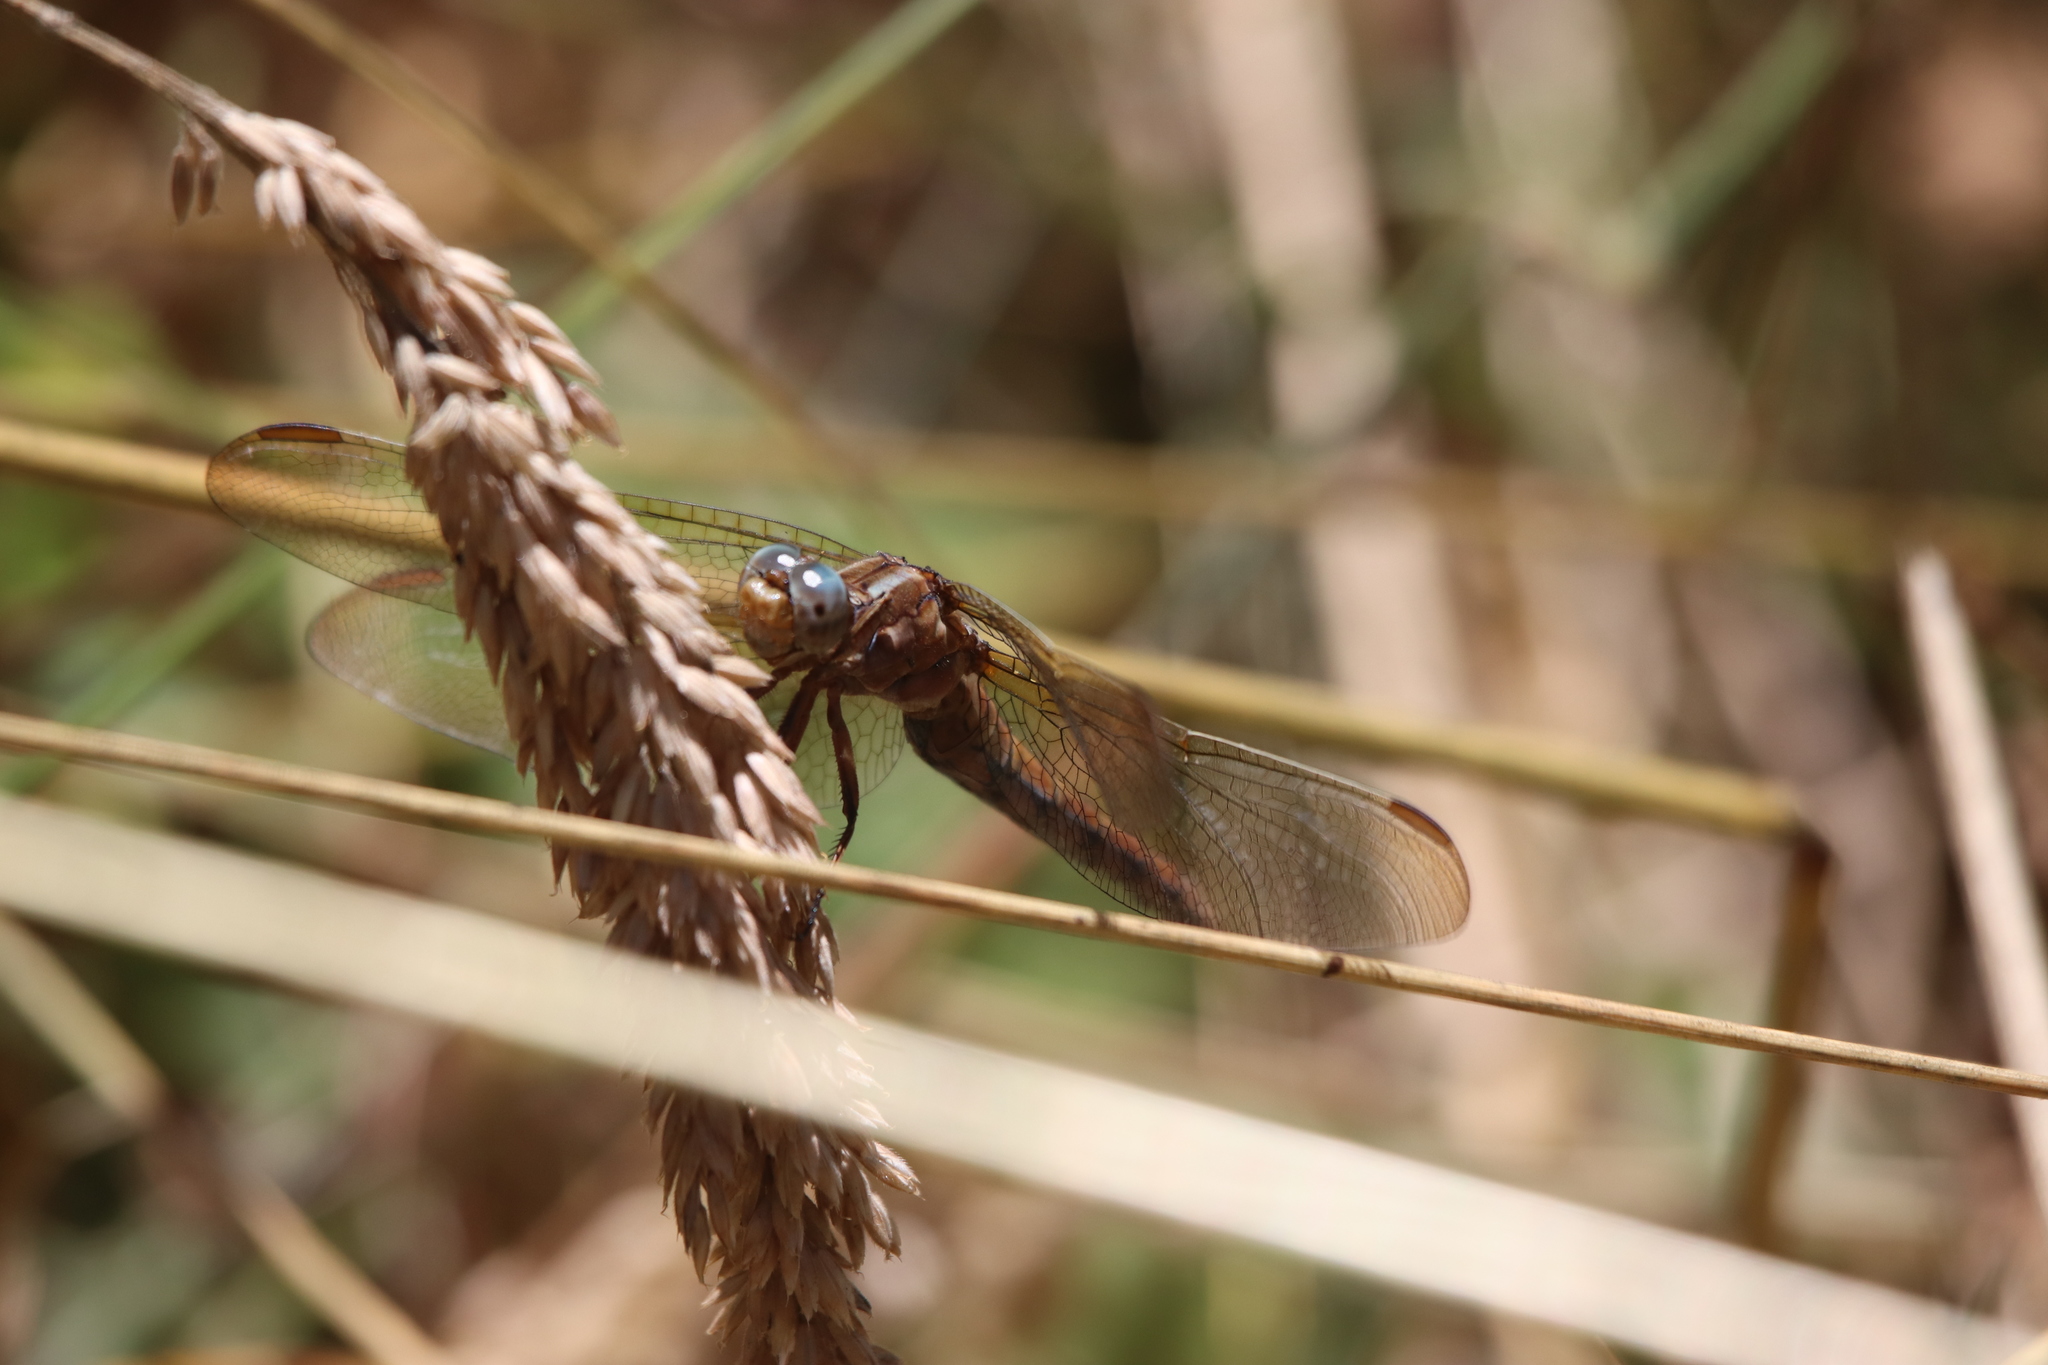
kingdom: Animalia
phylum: Arthropoda
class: Insecta
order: Odonata
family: Libellulidae
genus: Orthetrum
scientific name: Orthetrum coerulescens
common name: Keeled skimmer
